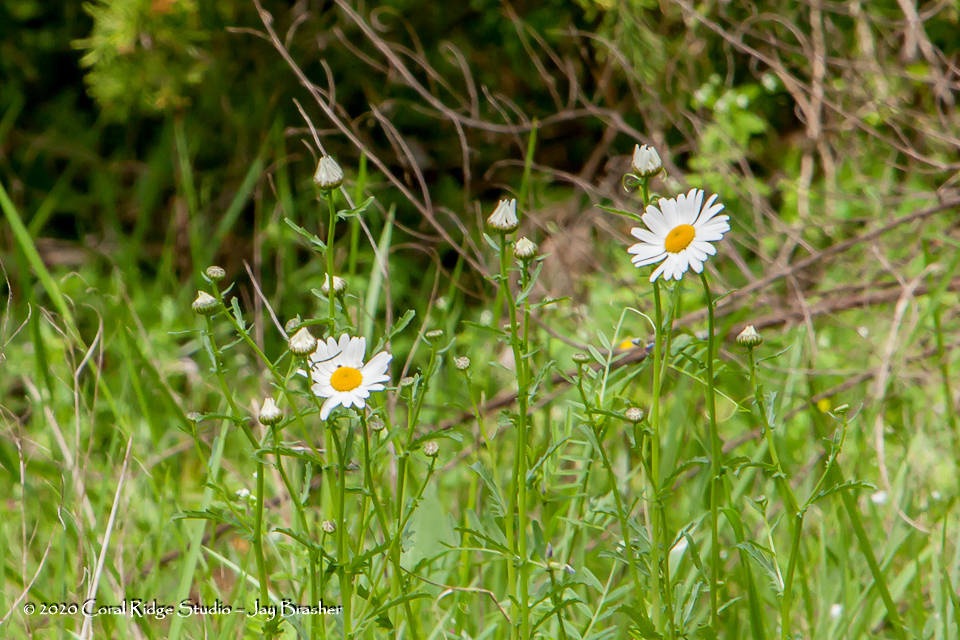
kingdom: Plantae
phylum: Tracheophyta
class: Magnoliopsida
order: Asterales
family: Asteraceae
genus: Leucanthemum
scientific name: Leucanthemum vulgare
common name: Oxeye daisy
